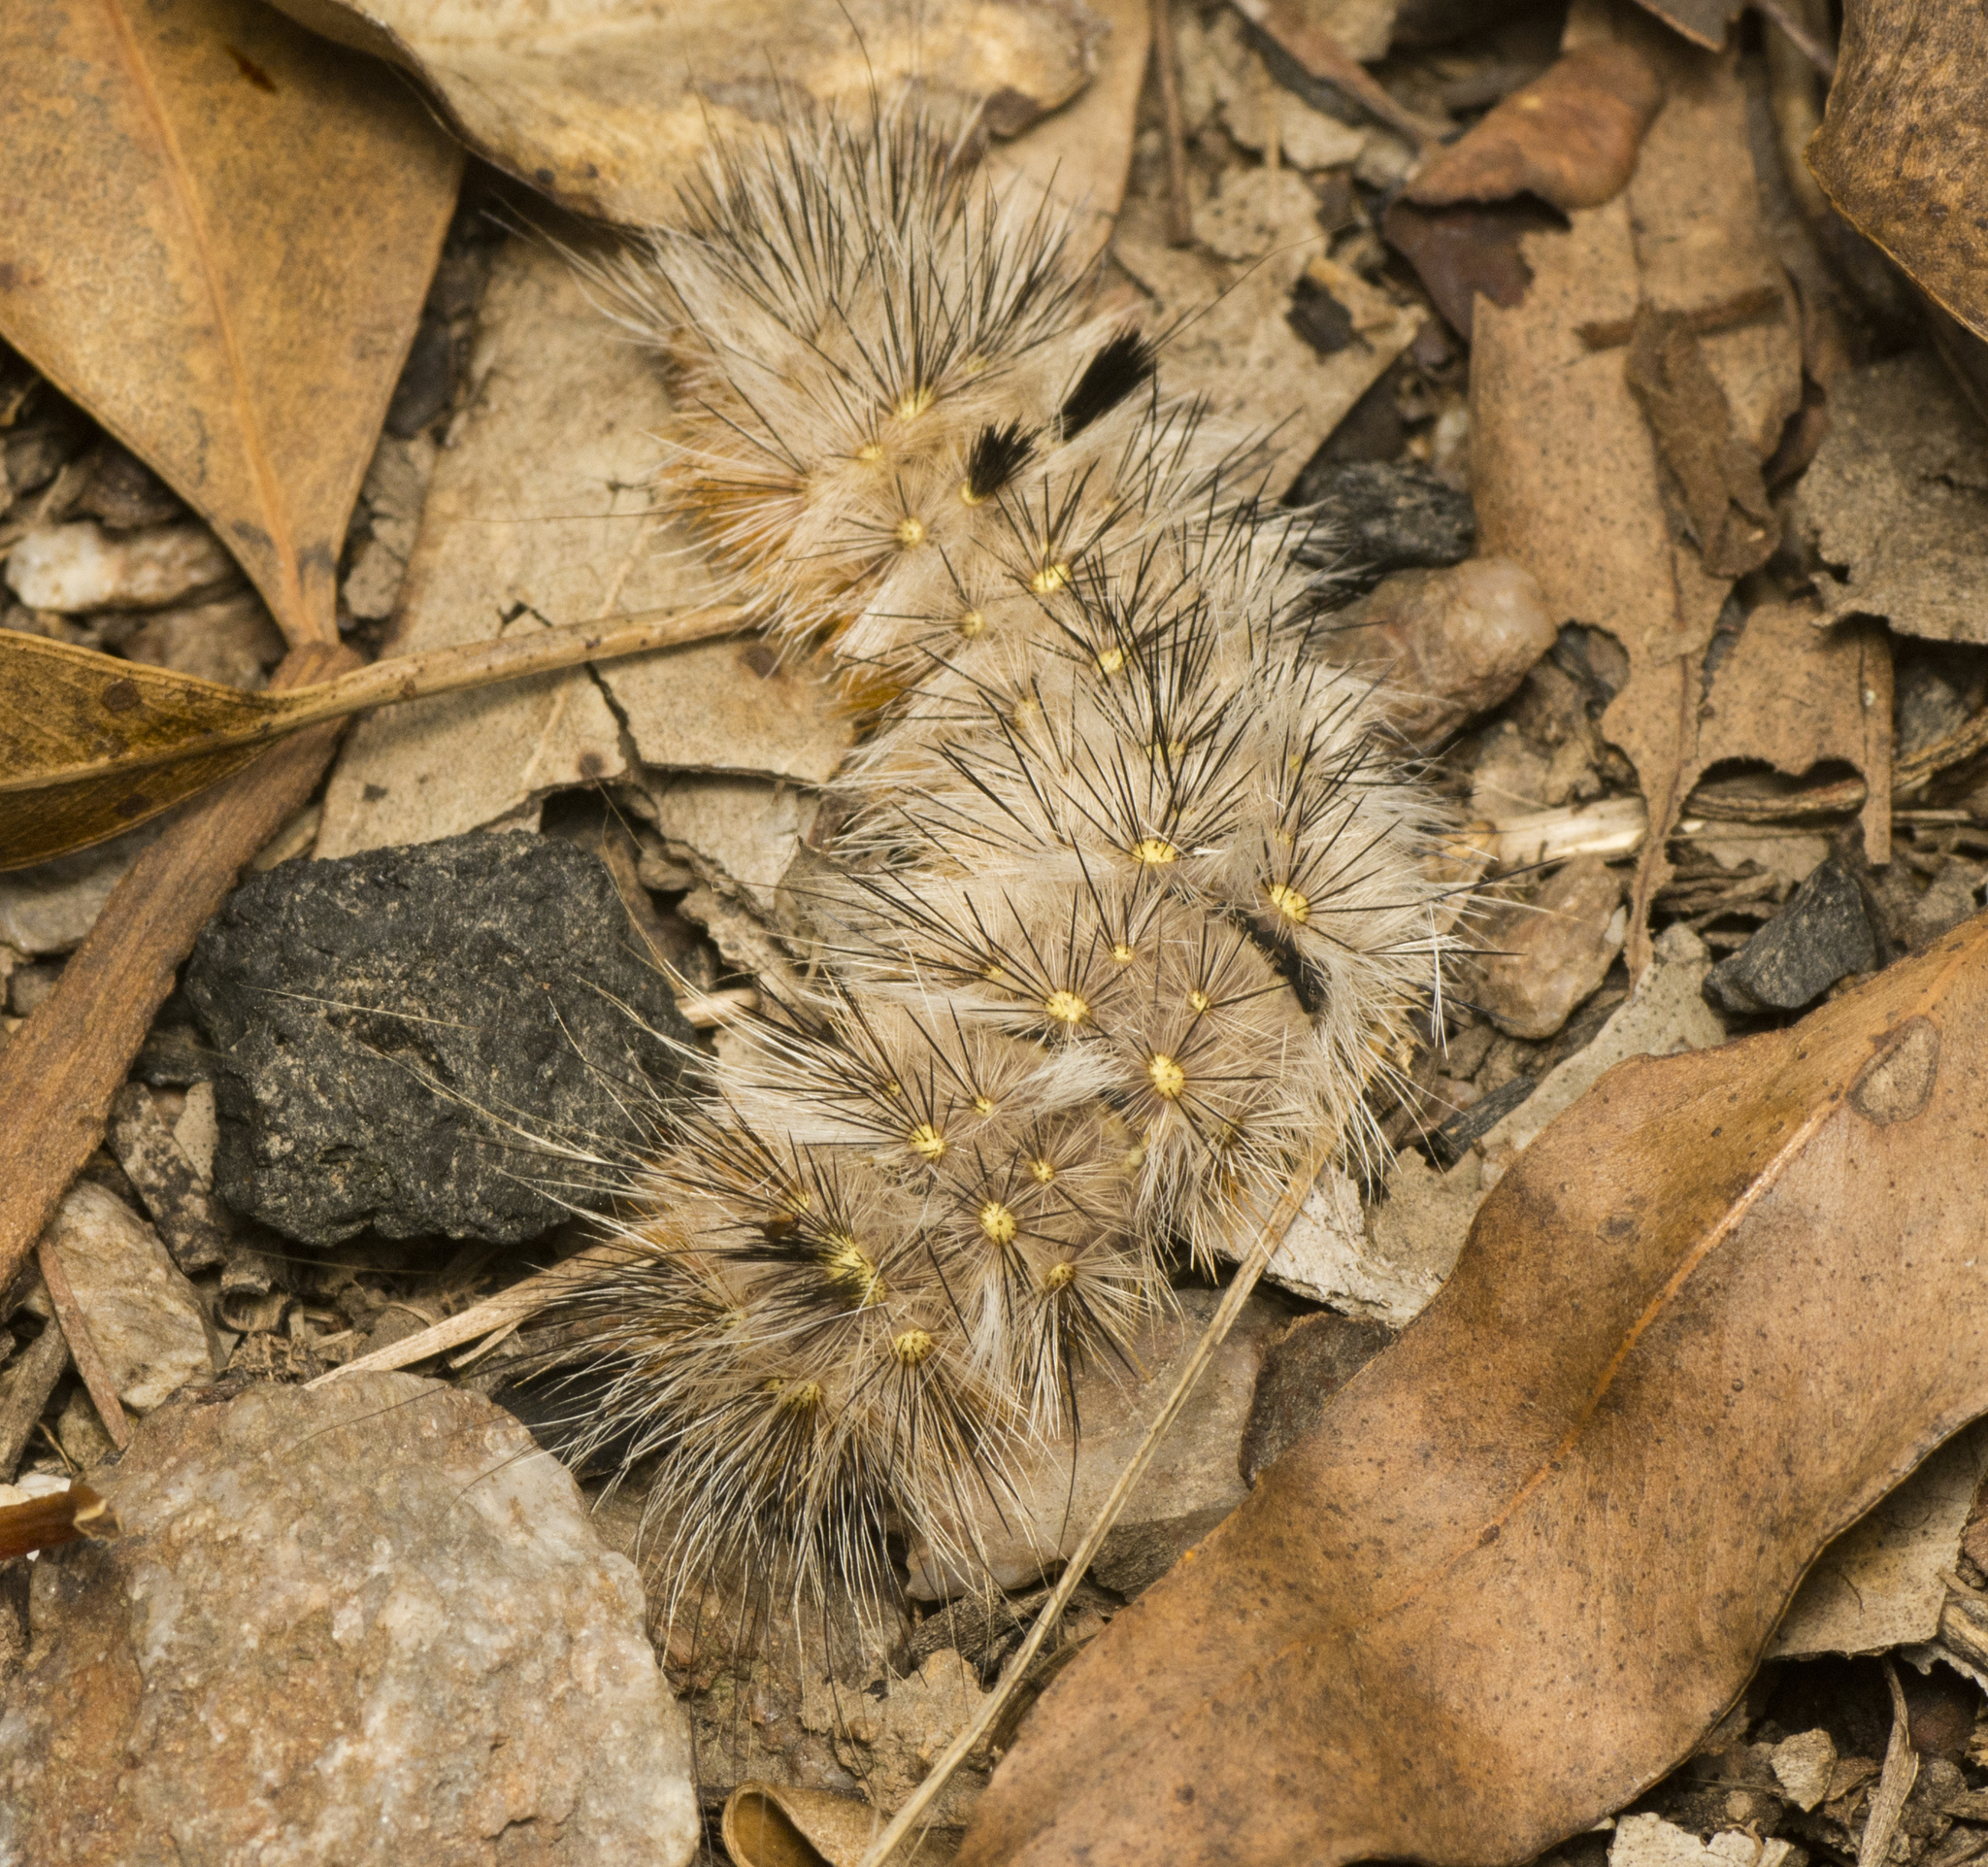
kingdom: Animalia
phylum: Arthropoda
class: Insecta
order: Lepidoptera
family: Anthelidae
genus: Anthela
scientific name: Anthela canescens
